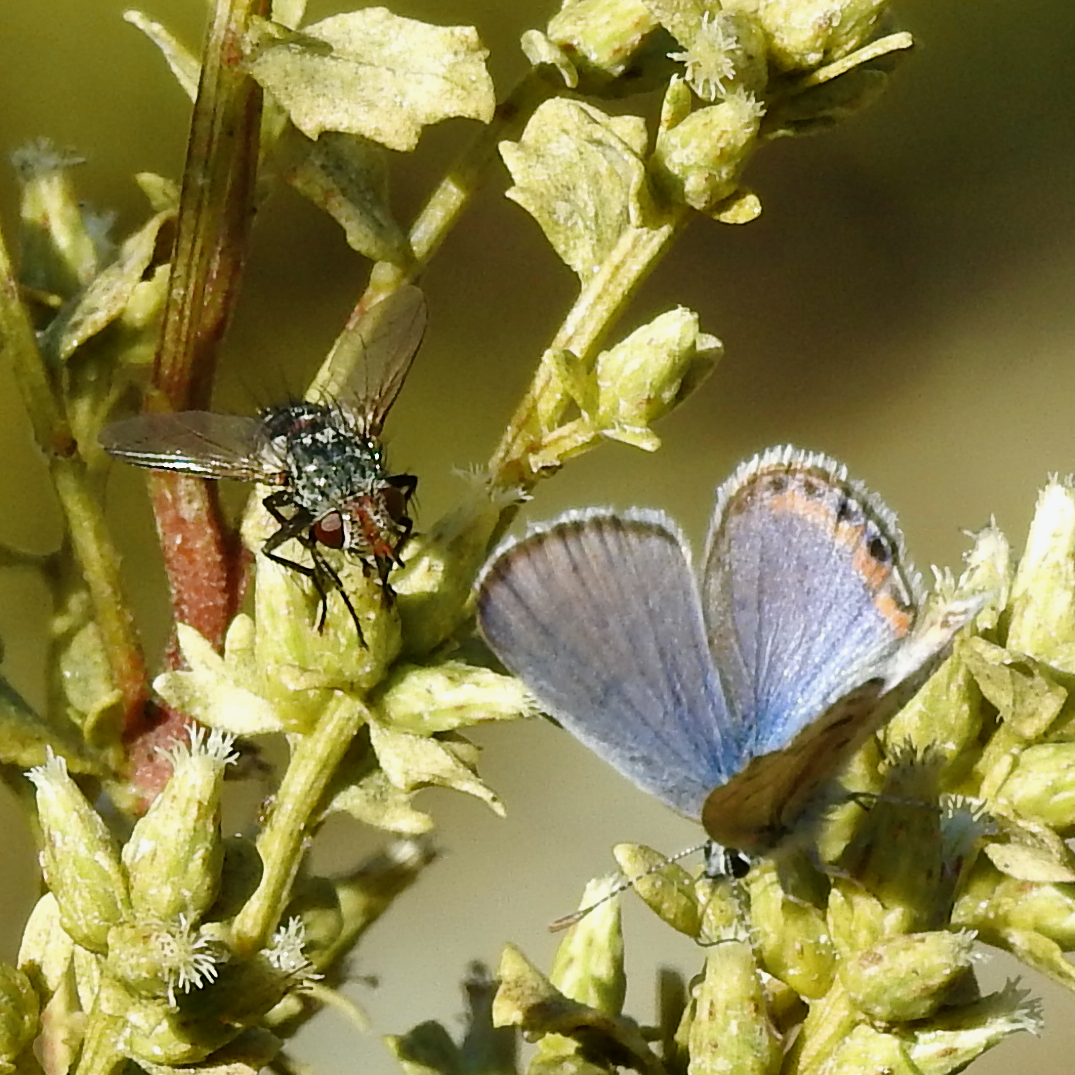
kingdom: Animalia
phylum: Arthropoda
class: Insecta
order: Lepidoptera
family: Lycaenidae
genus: Icaricia
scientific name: Icaricia acmon
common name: Acmon blue
